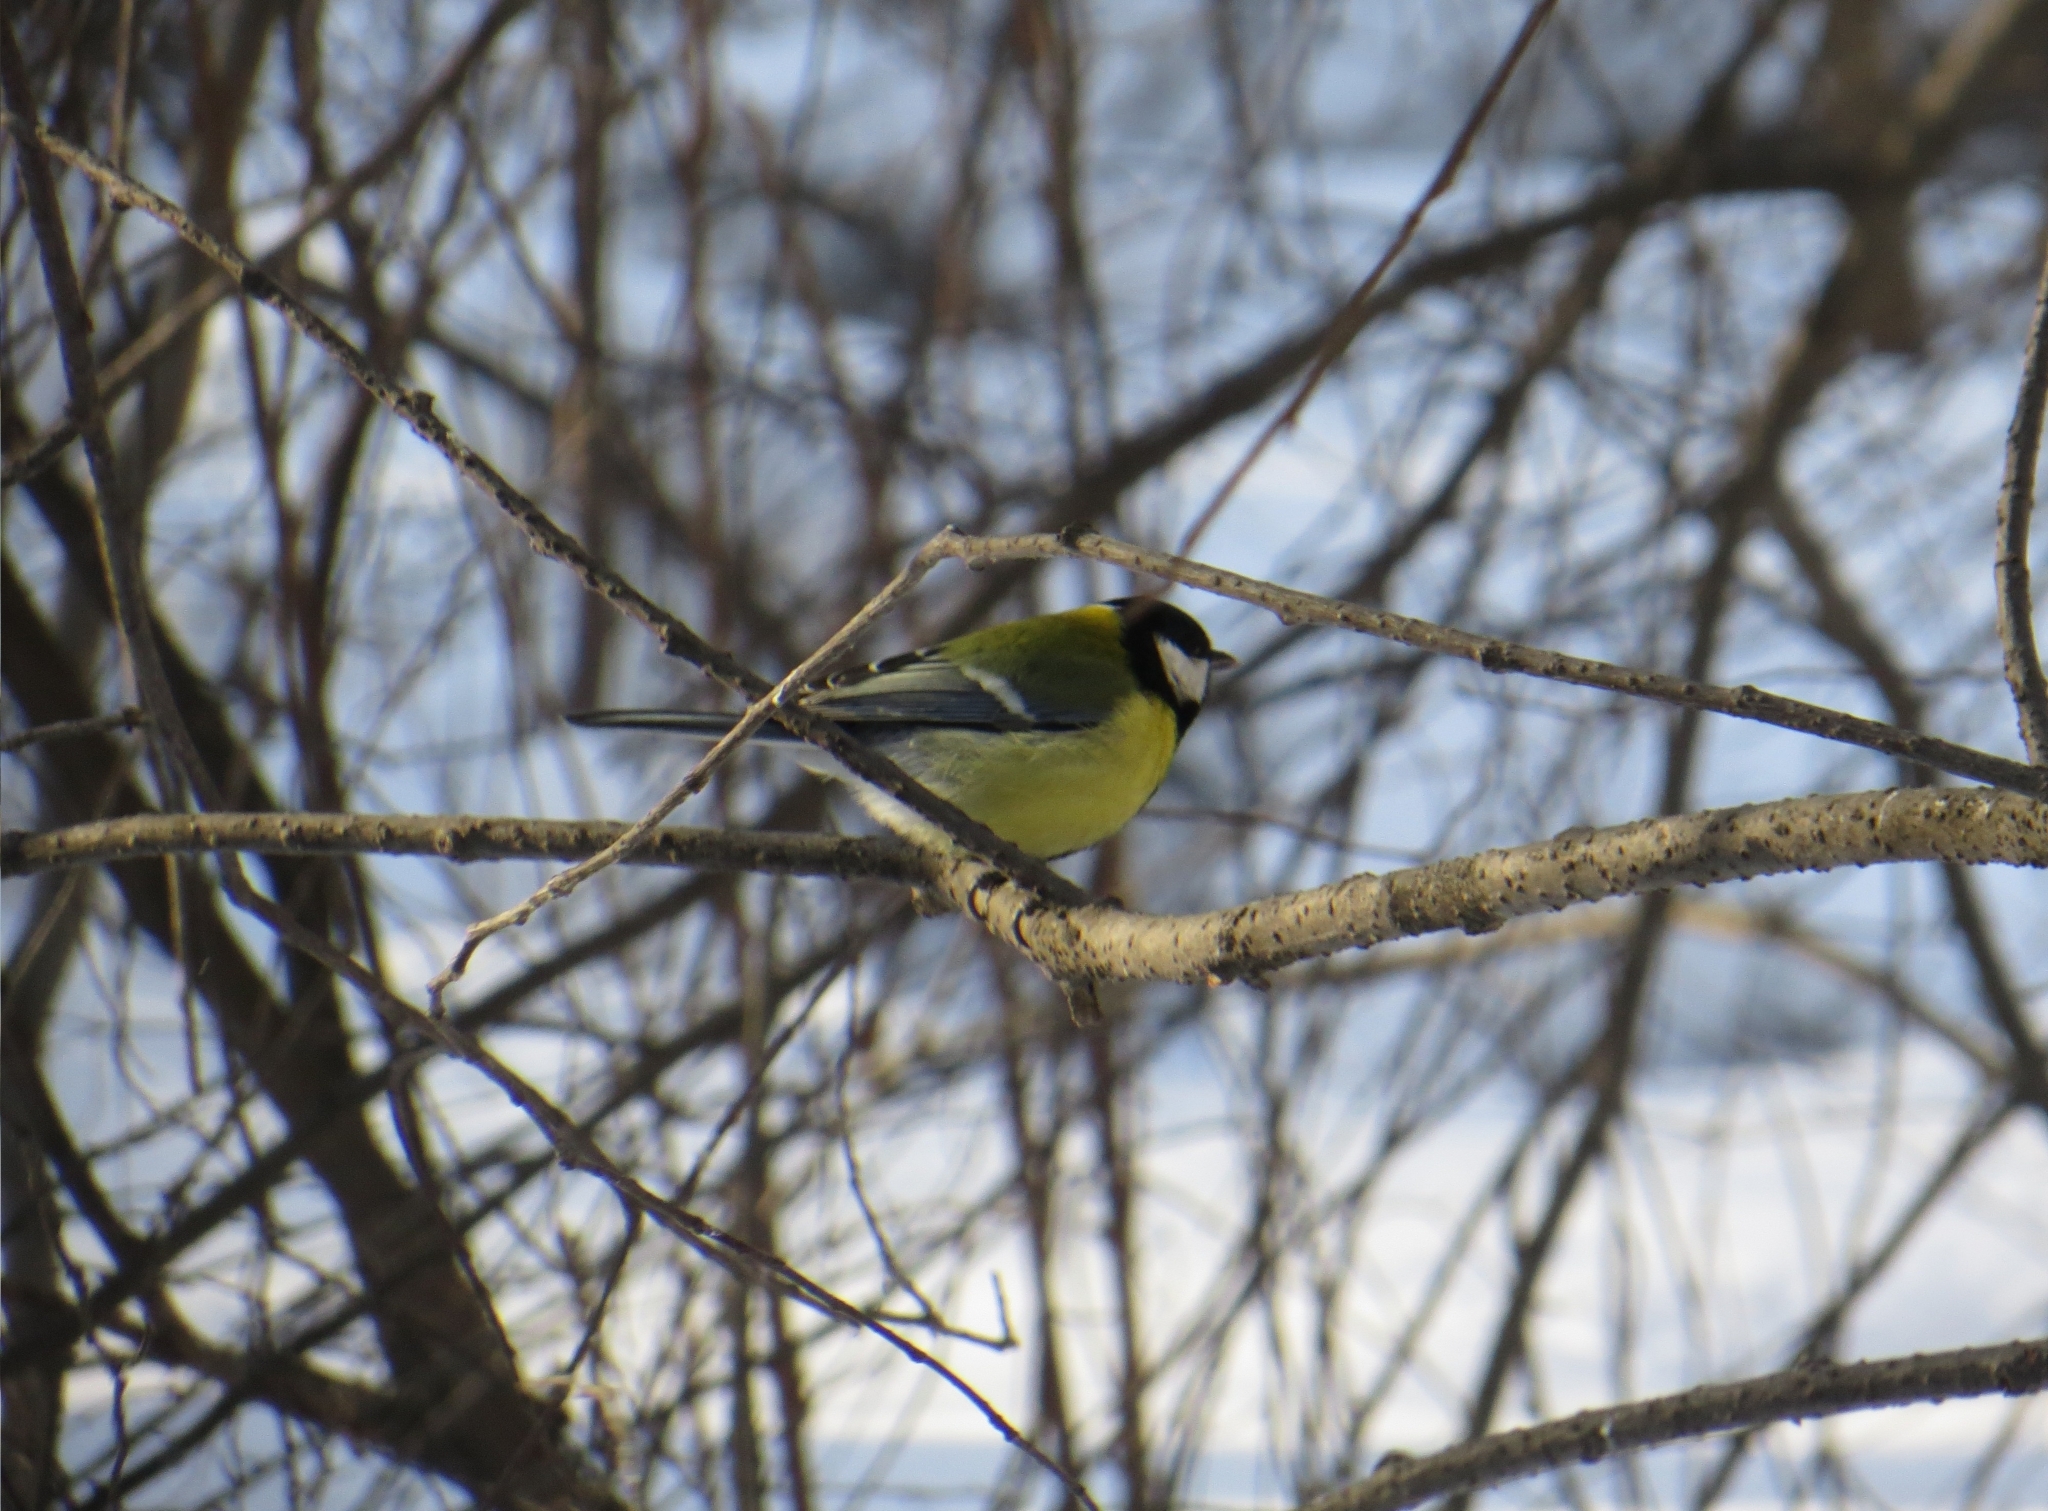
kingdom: Animalia
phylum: Chordata
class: Aves
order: Passeriformes
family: Paridae
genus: Parus
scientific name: Parus major
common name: Great tit
